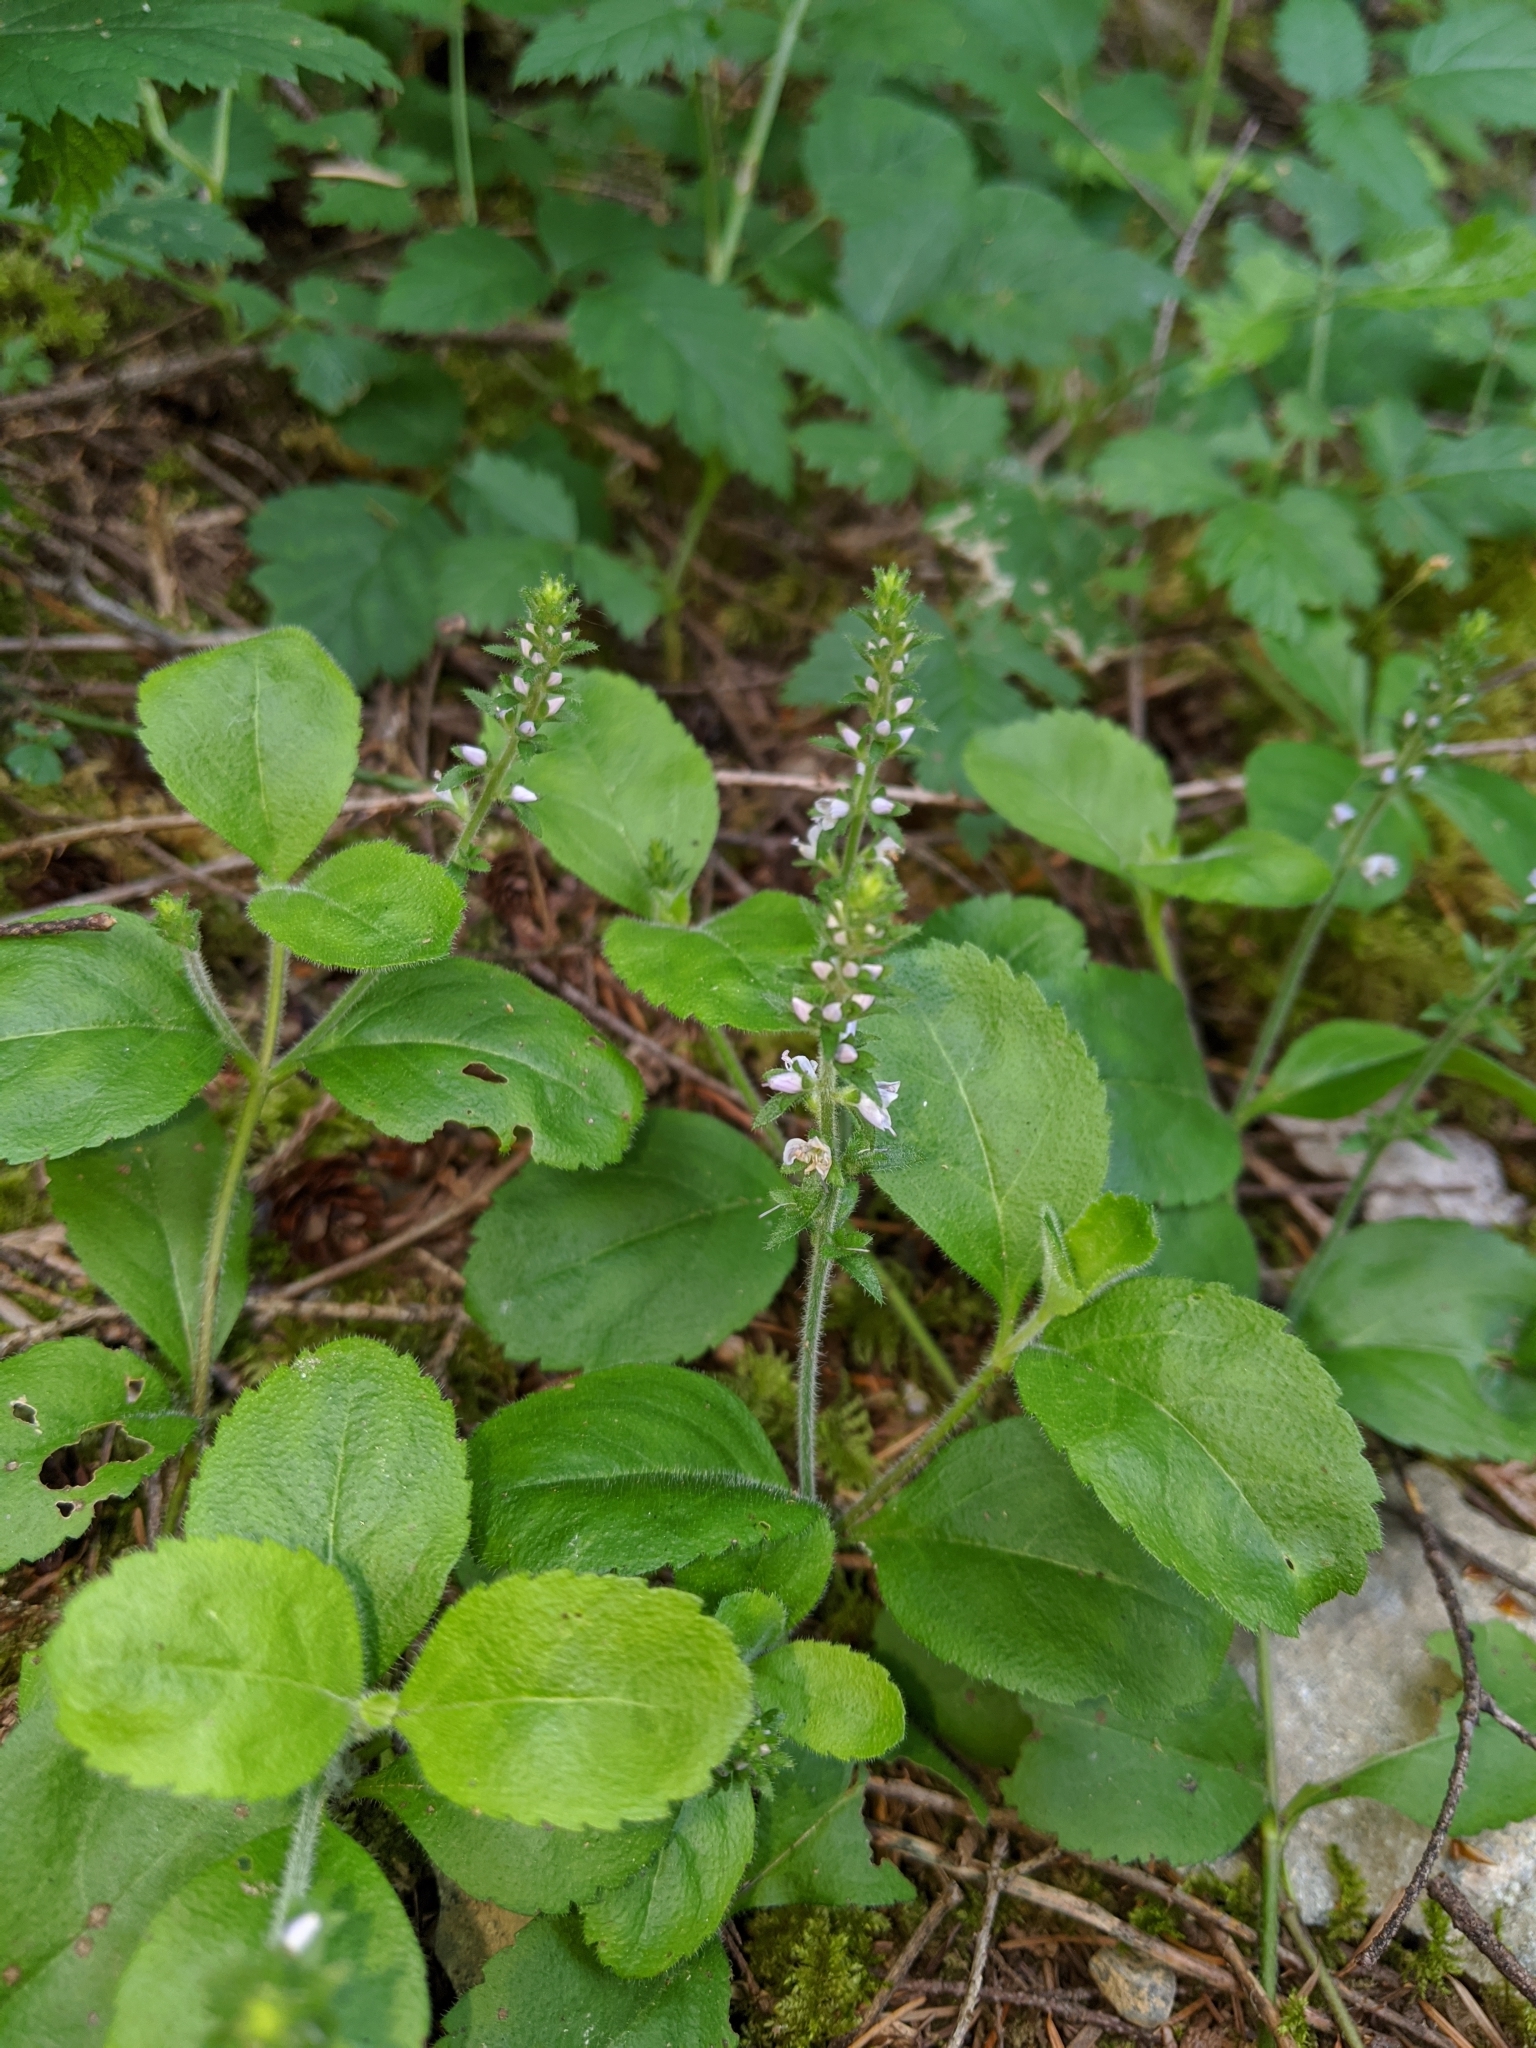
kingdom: Plantae
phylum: Tracheophyta
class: Magnoliopsida
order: Lamiales
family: Plantaginaceae
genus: Veronica
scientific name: Veronica officinalis
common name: Common speedwell
